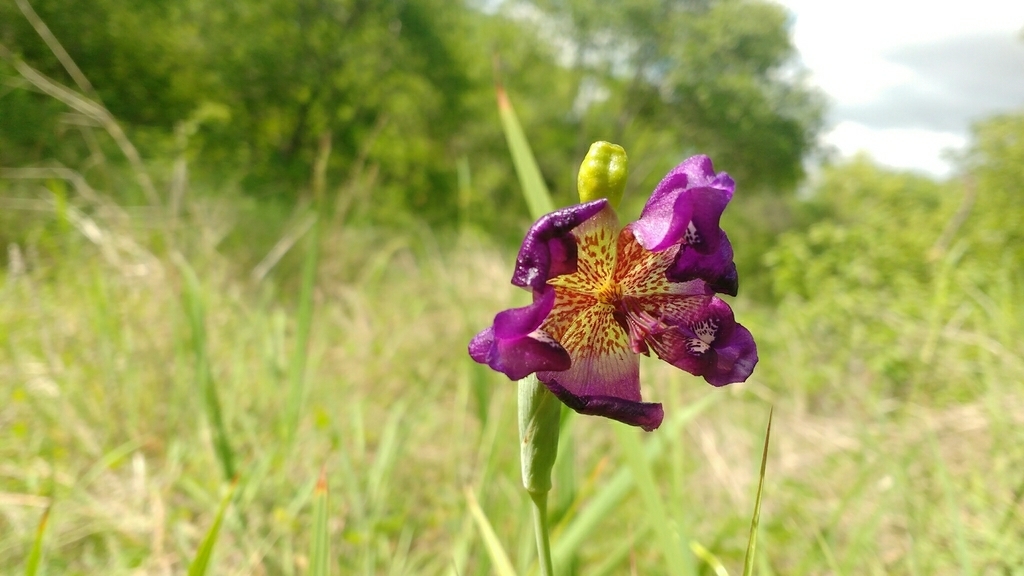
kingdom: Plantae
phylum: Tracheophyta
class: Liliopsida
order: Asparagales
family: Iridaceae
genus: Alophia
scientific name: Alophia drummondii
